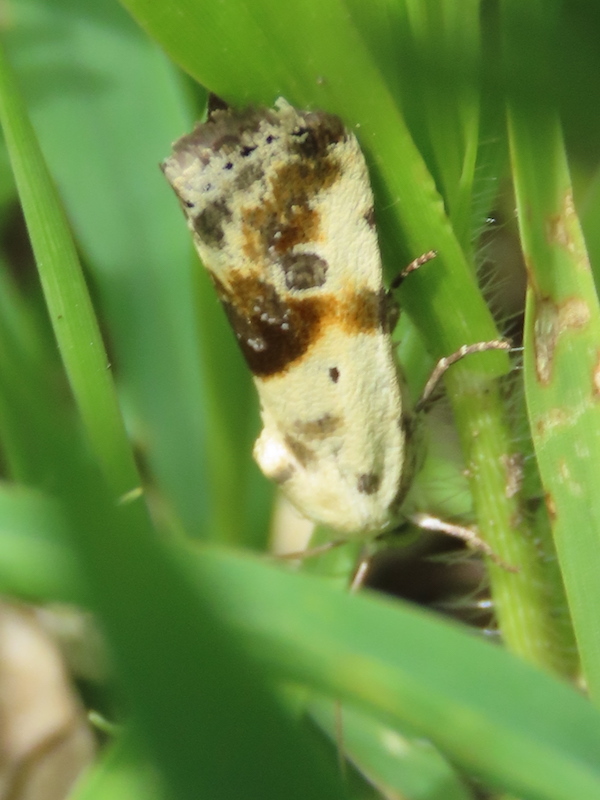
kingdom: Animalia
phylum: Arthropoda
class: Insecta
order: Lepidoptera
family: Noctuidae
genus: Acontia
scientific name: Acontia candefacta
